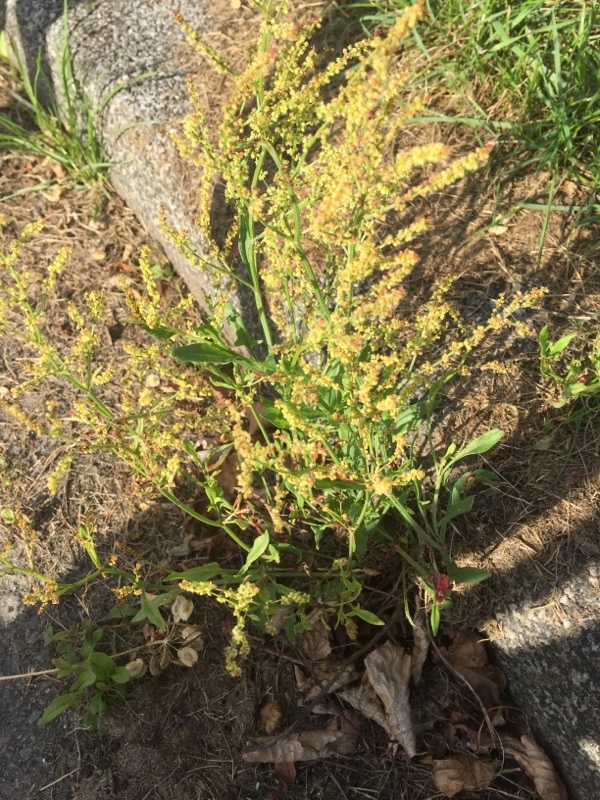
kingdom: Plantae
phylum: Tracheophyta
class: Magnoliopsida
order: Caryophyllales
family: Polygonaceae
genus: Rumex
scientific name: Rumex acetosella
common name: Common sheep sorrel
